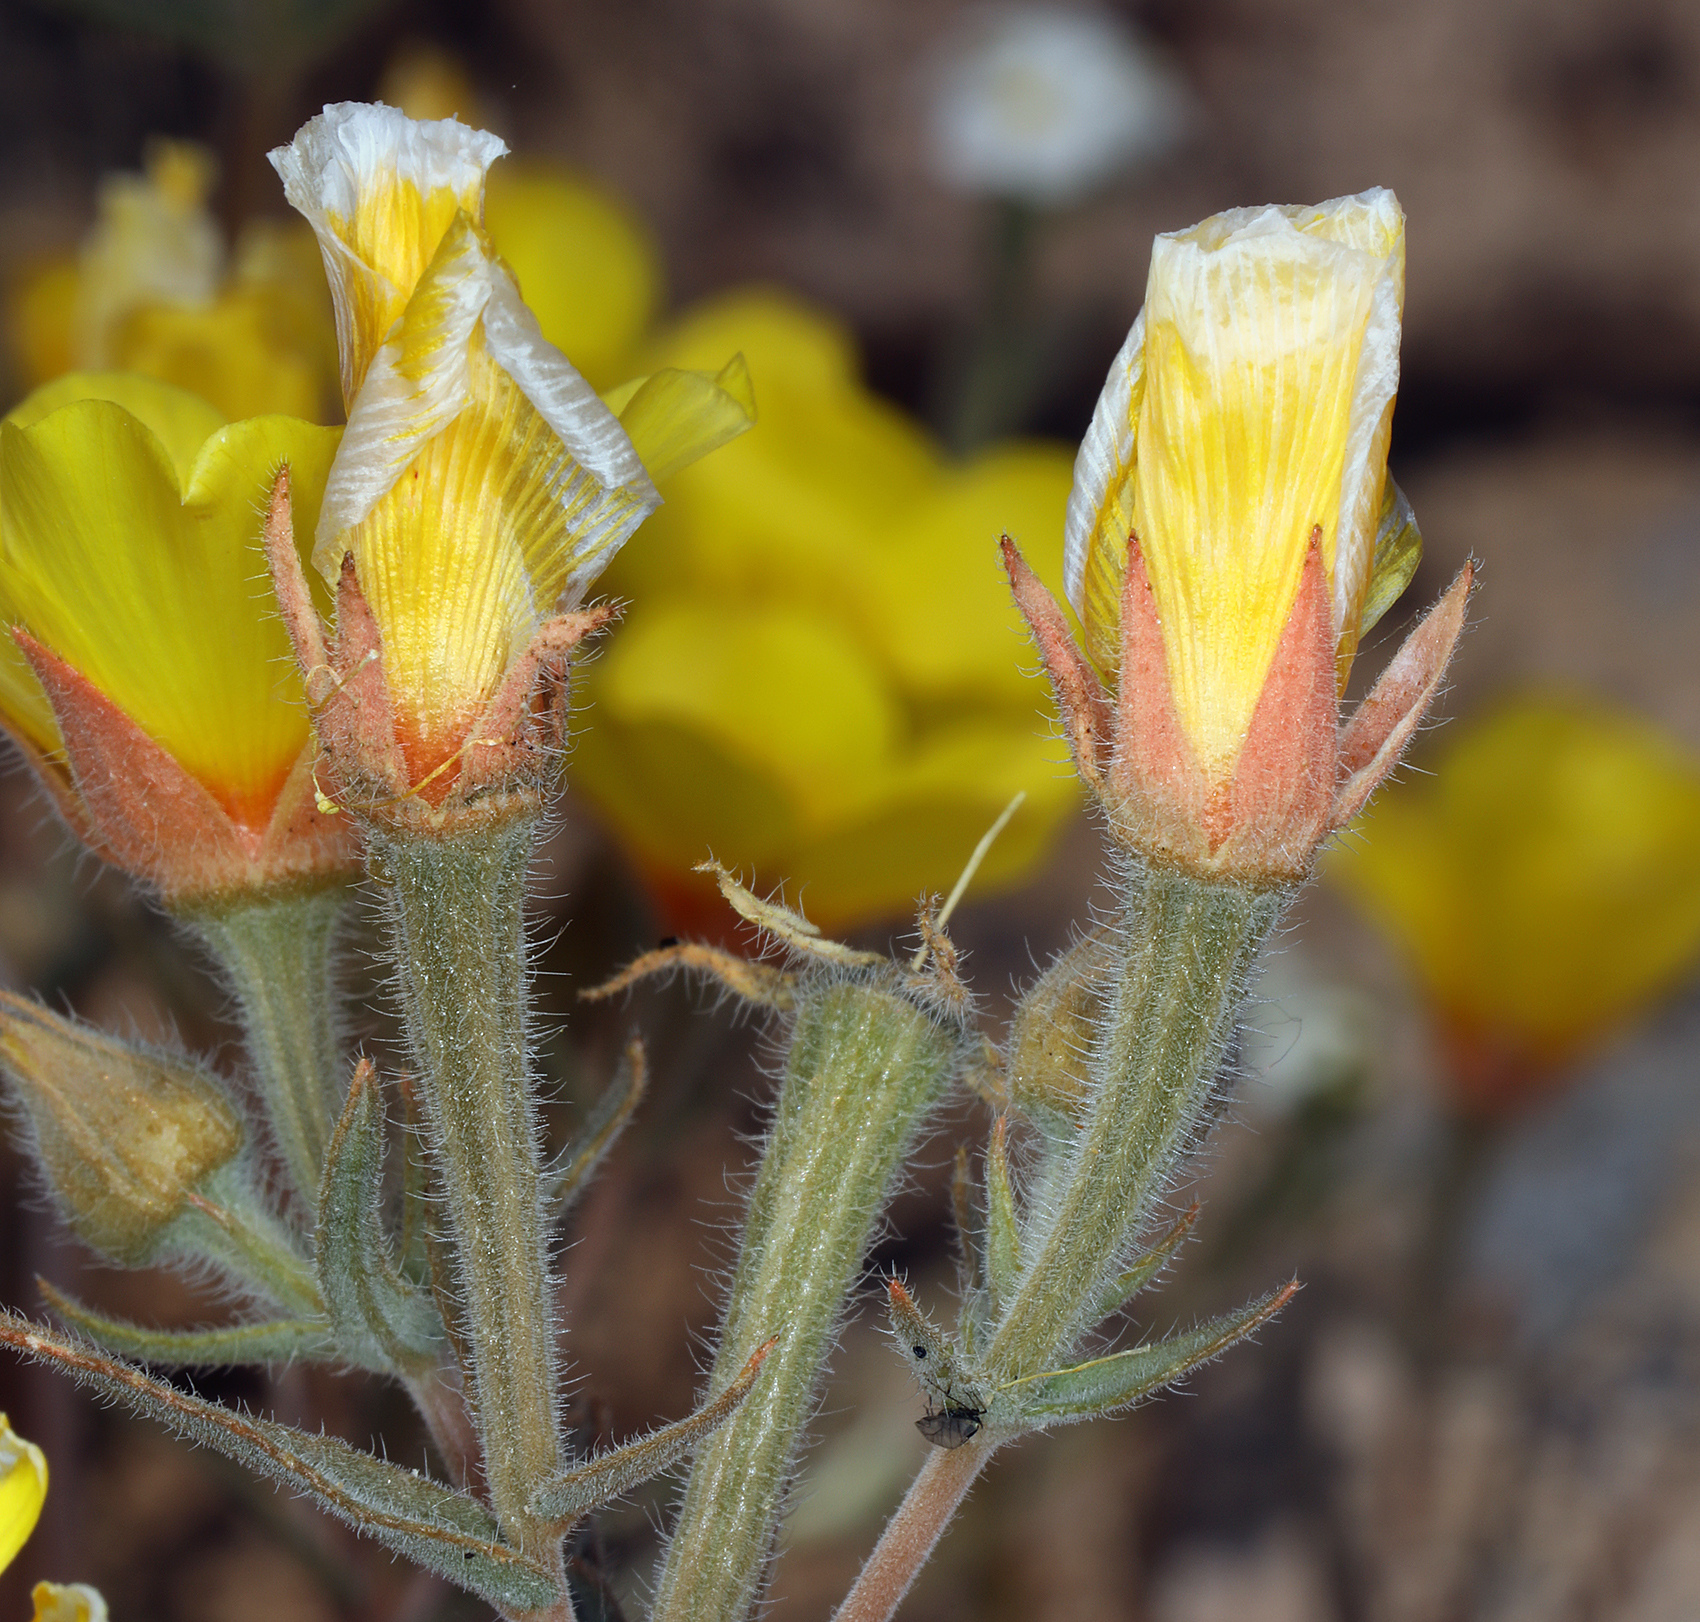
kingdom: Plantae
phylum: Tracheophyta
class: Magnoliopsida
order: Cornales
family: Loasaceae
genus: Mentzelia
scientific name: Mentzelia nitens
